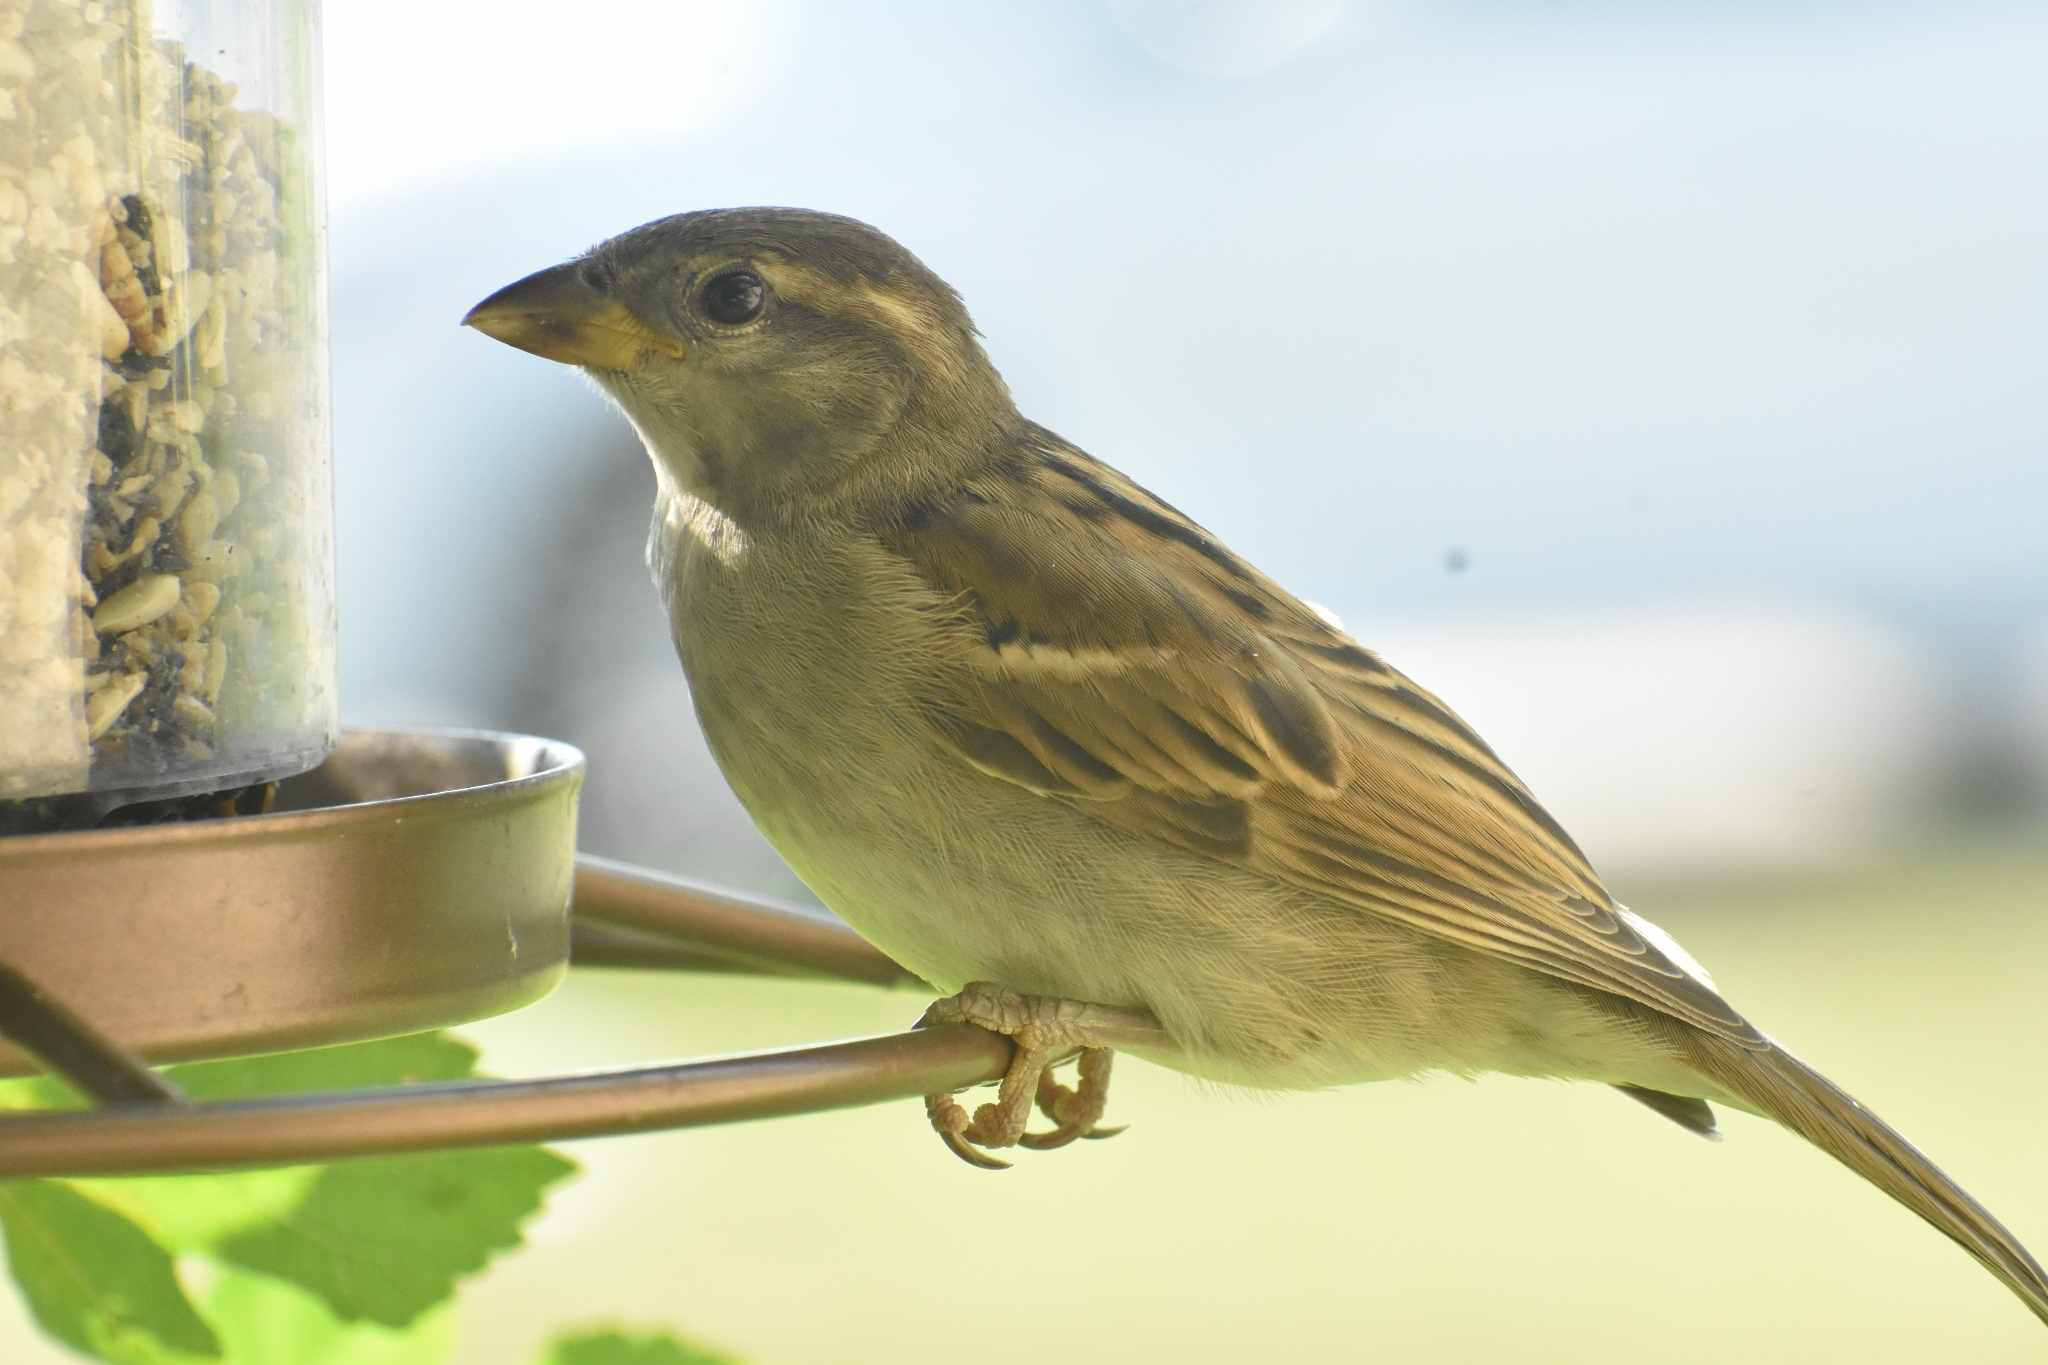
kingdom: Animalia
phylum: Chordata
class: Aves
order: Passeriformes
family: Passeridae
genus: Passer
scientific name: Passer domesticus
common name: House sparrow
